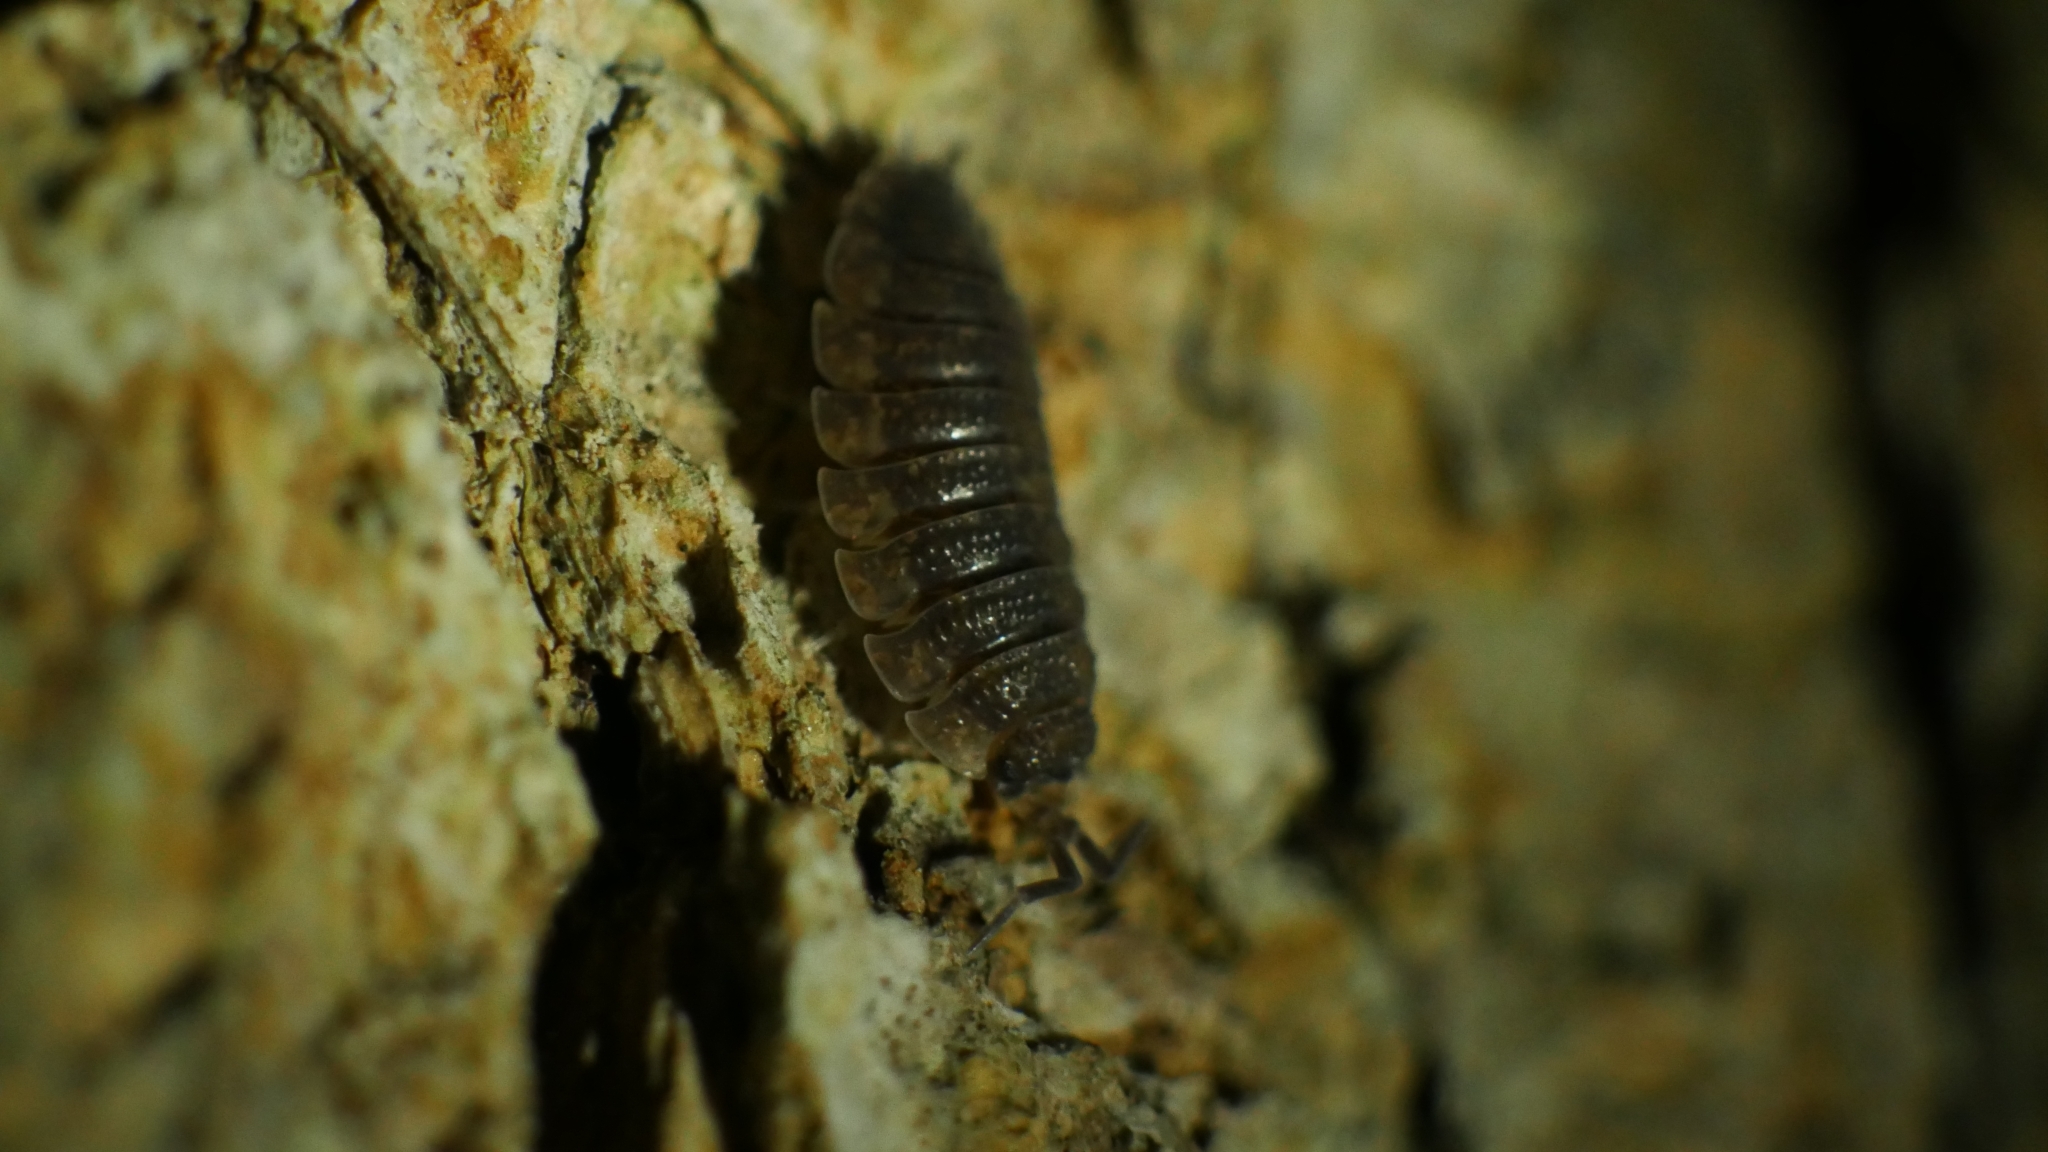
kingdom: Animalia
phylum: Arthropoda
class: Malacostraca
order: Isopoda
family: Porcellionidae
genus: Porcellio
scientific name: Porcellio scaber
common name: Common rough woodlouse
